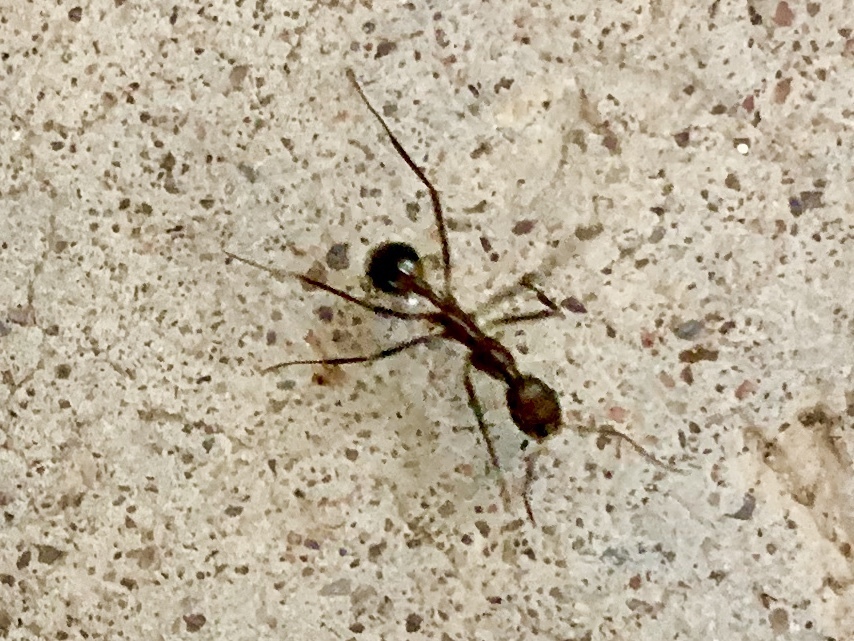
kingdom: Animalia
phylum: Arthropoda
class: Insecta
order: Hymenoptera
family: Formicidae
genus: Novomessor
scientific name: Novomessor cockerelli
